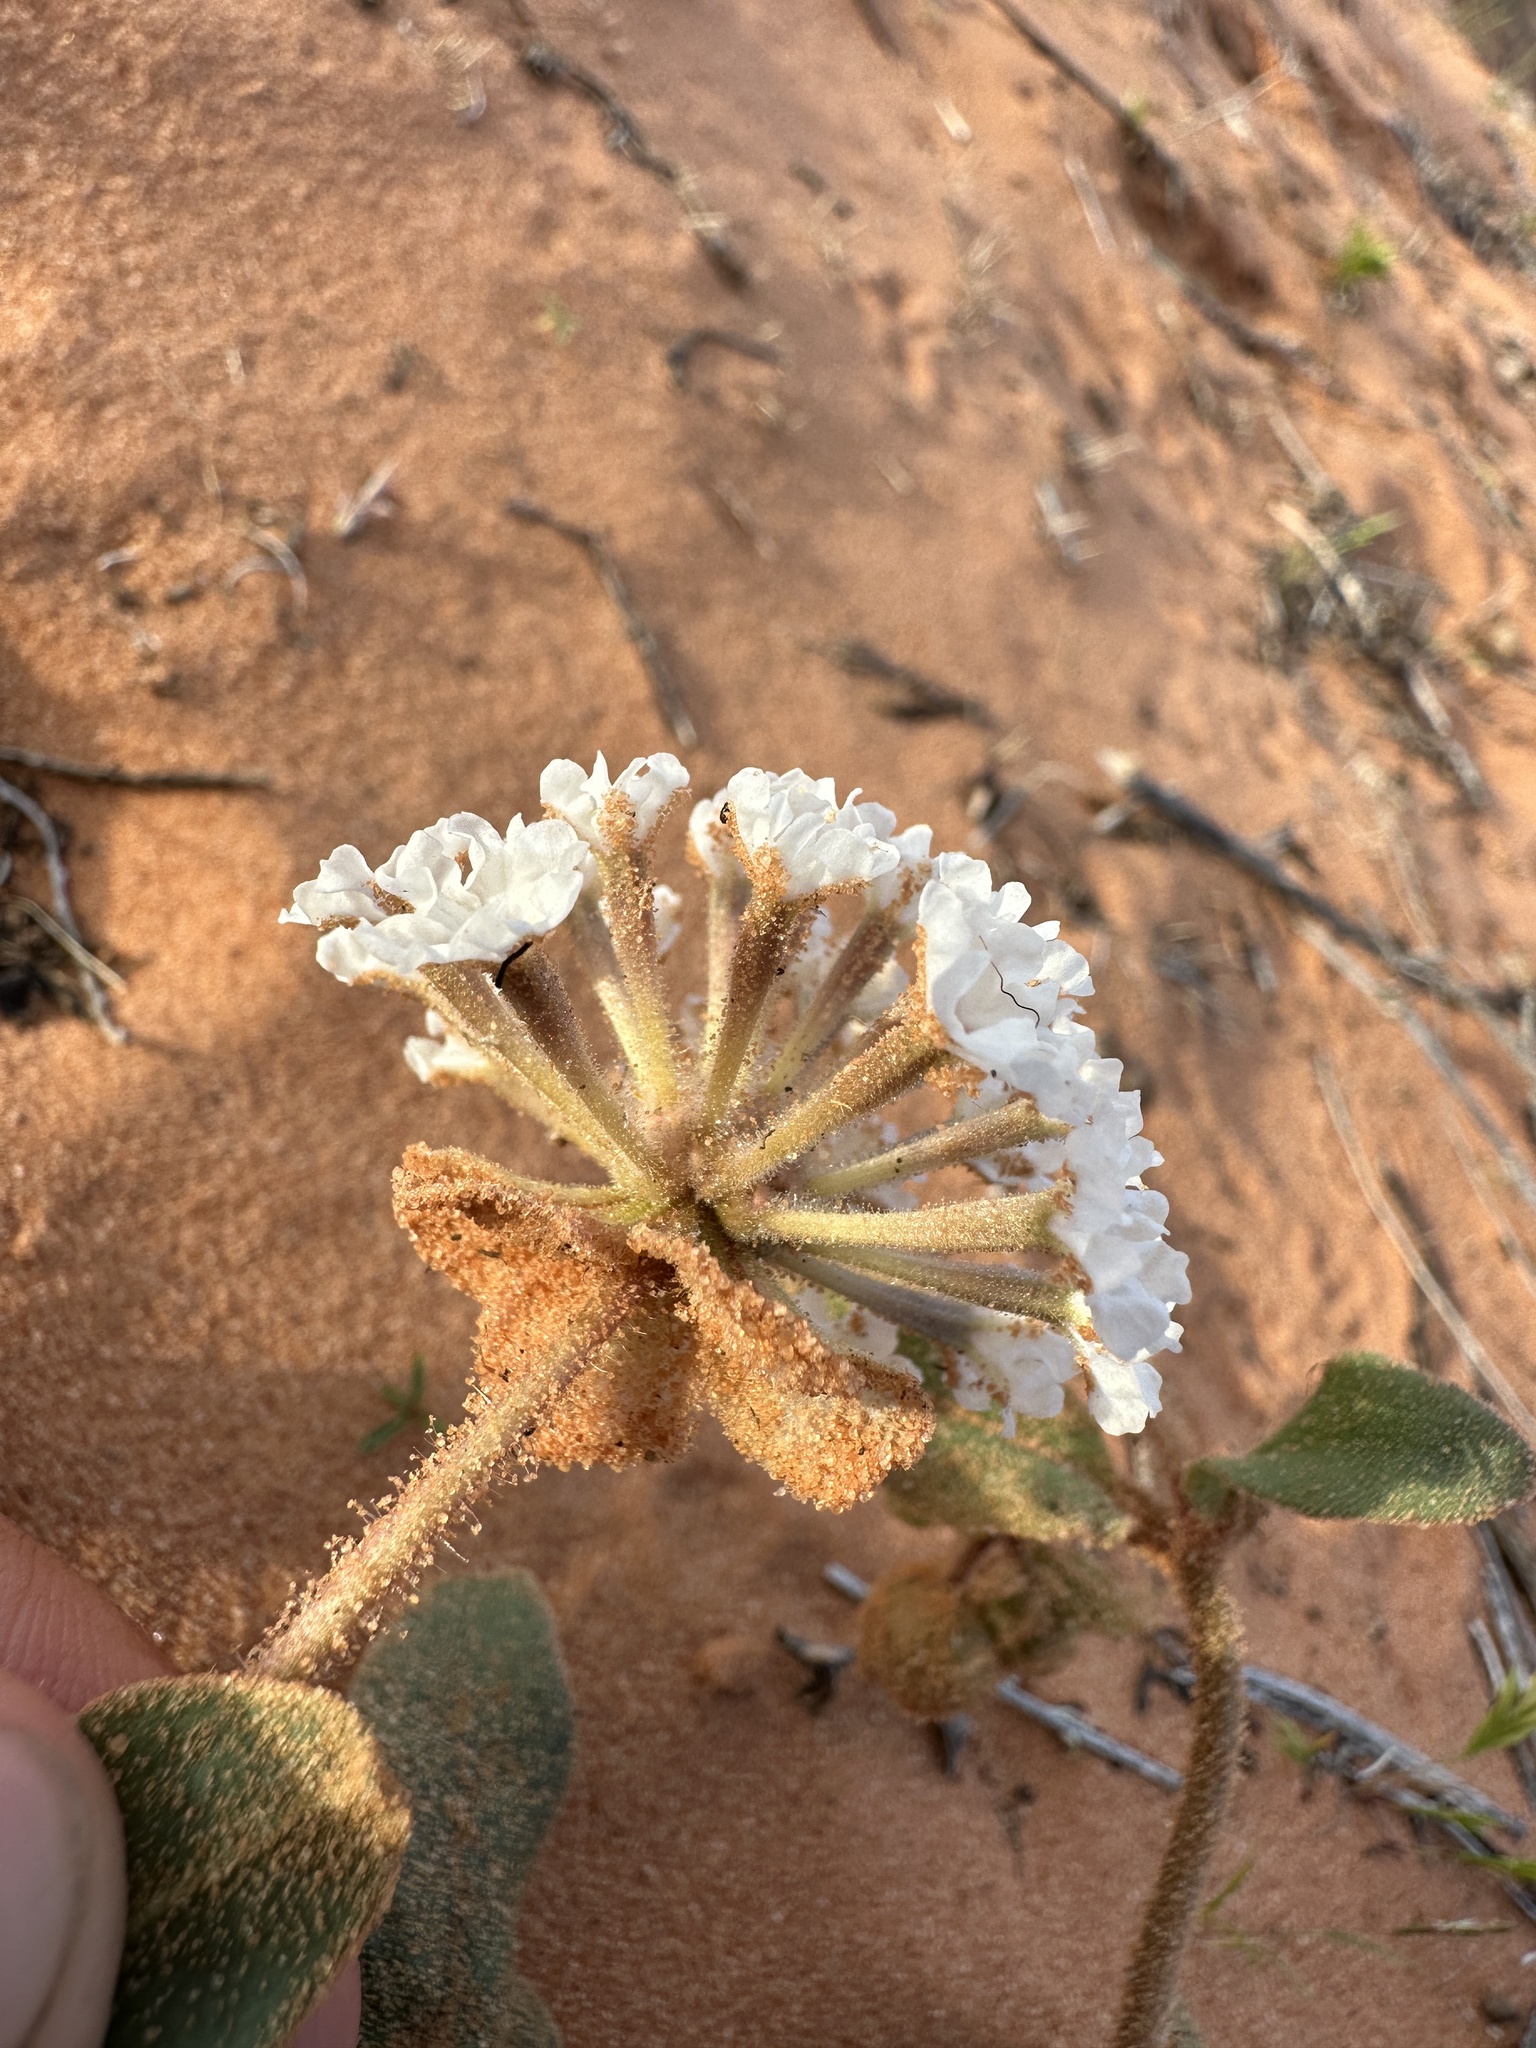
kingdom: Plantae
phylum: Tracheophyta
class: Magnoliopsida
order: Caryophyllales
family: Nyctaginaceae
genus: Abronia
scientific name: Abronia elliptica
